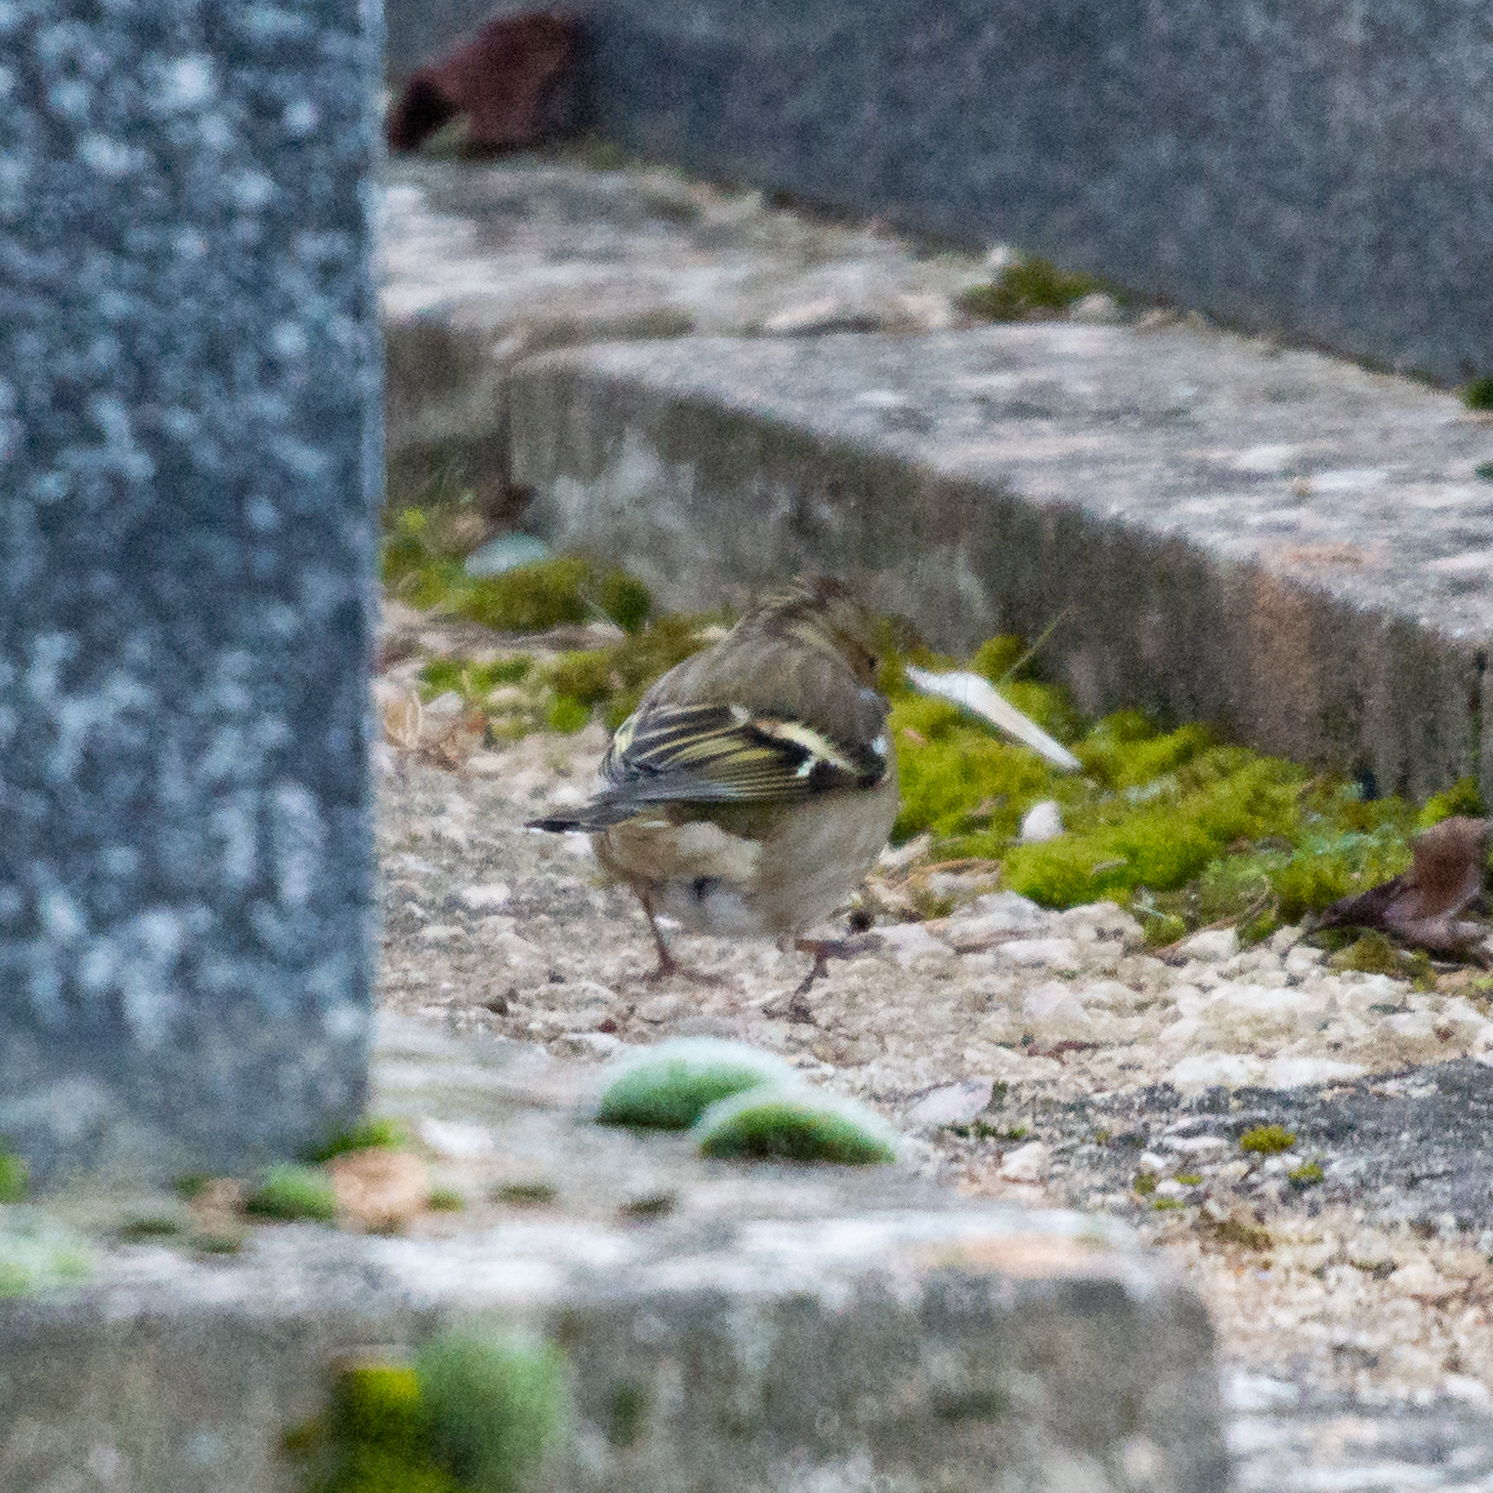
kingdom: Animalia
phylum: Chordata
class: Aves
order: Passeriformes
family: Fringillidae
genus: Fringilla
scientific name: Fringilla coelebs
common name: Common chaffinch
